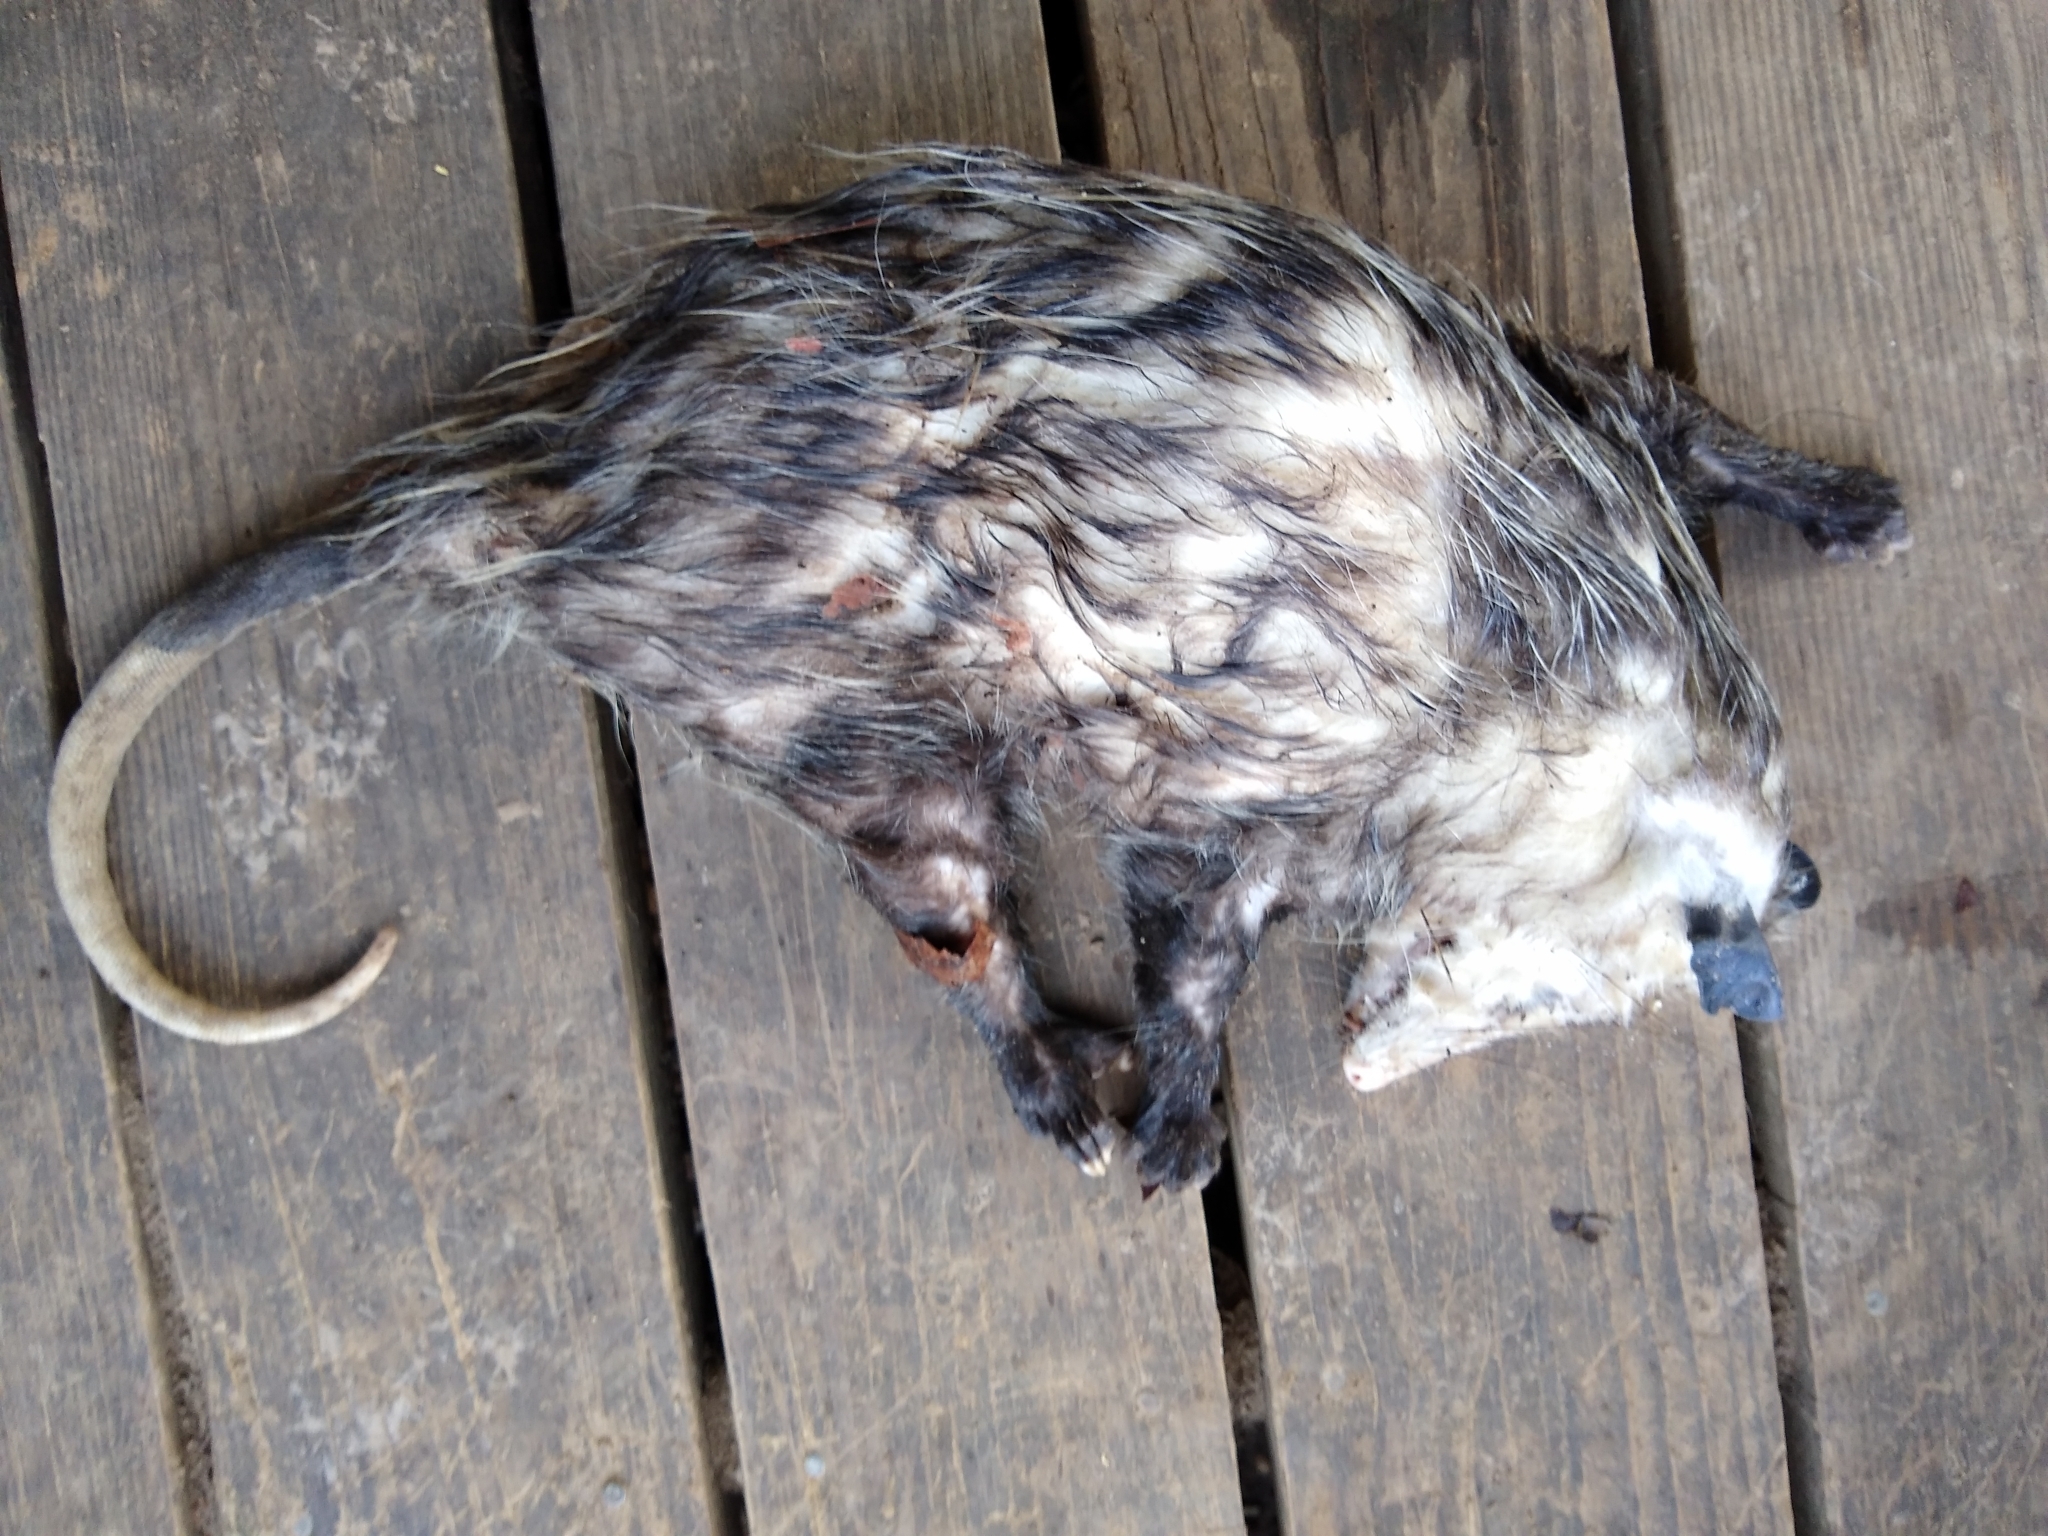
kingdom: Animalia
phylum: Chordata
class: Mammalia
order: Didelphimorphia
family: Didelphidae
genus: Didelphis
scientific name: Didelphis virginiana
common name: Virginia opossum
